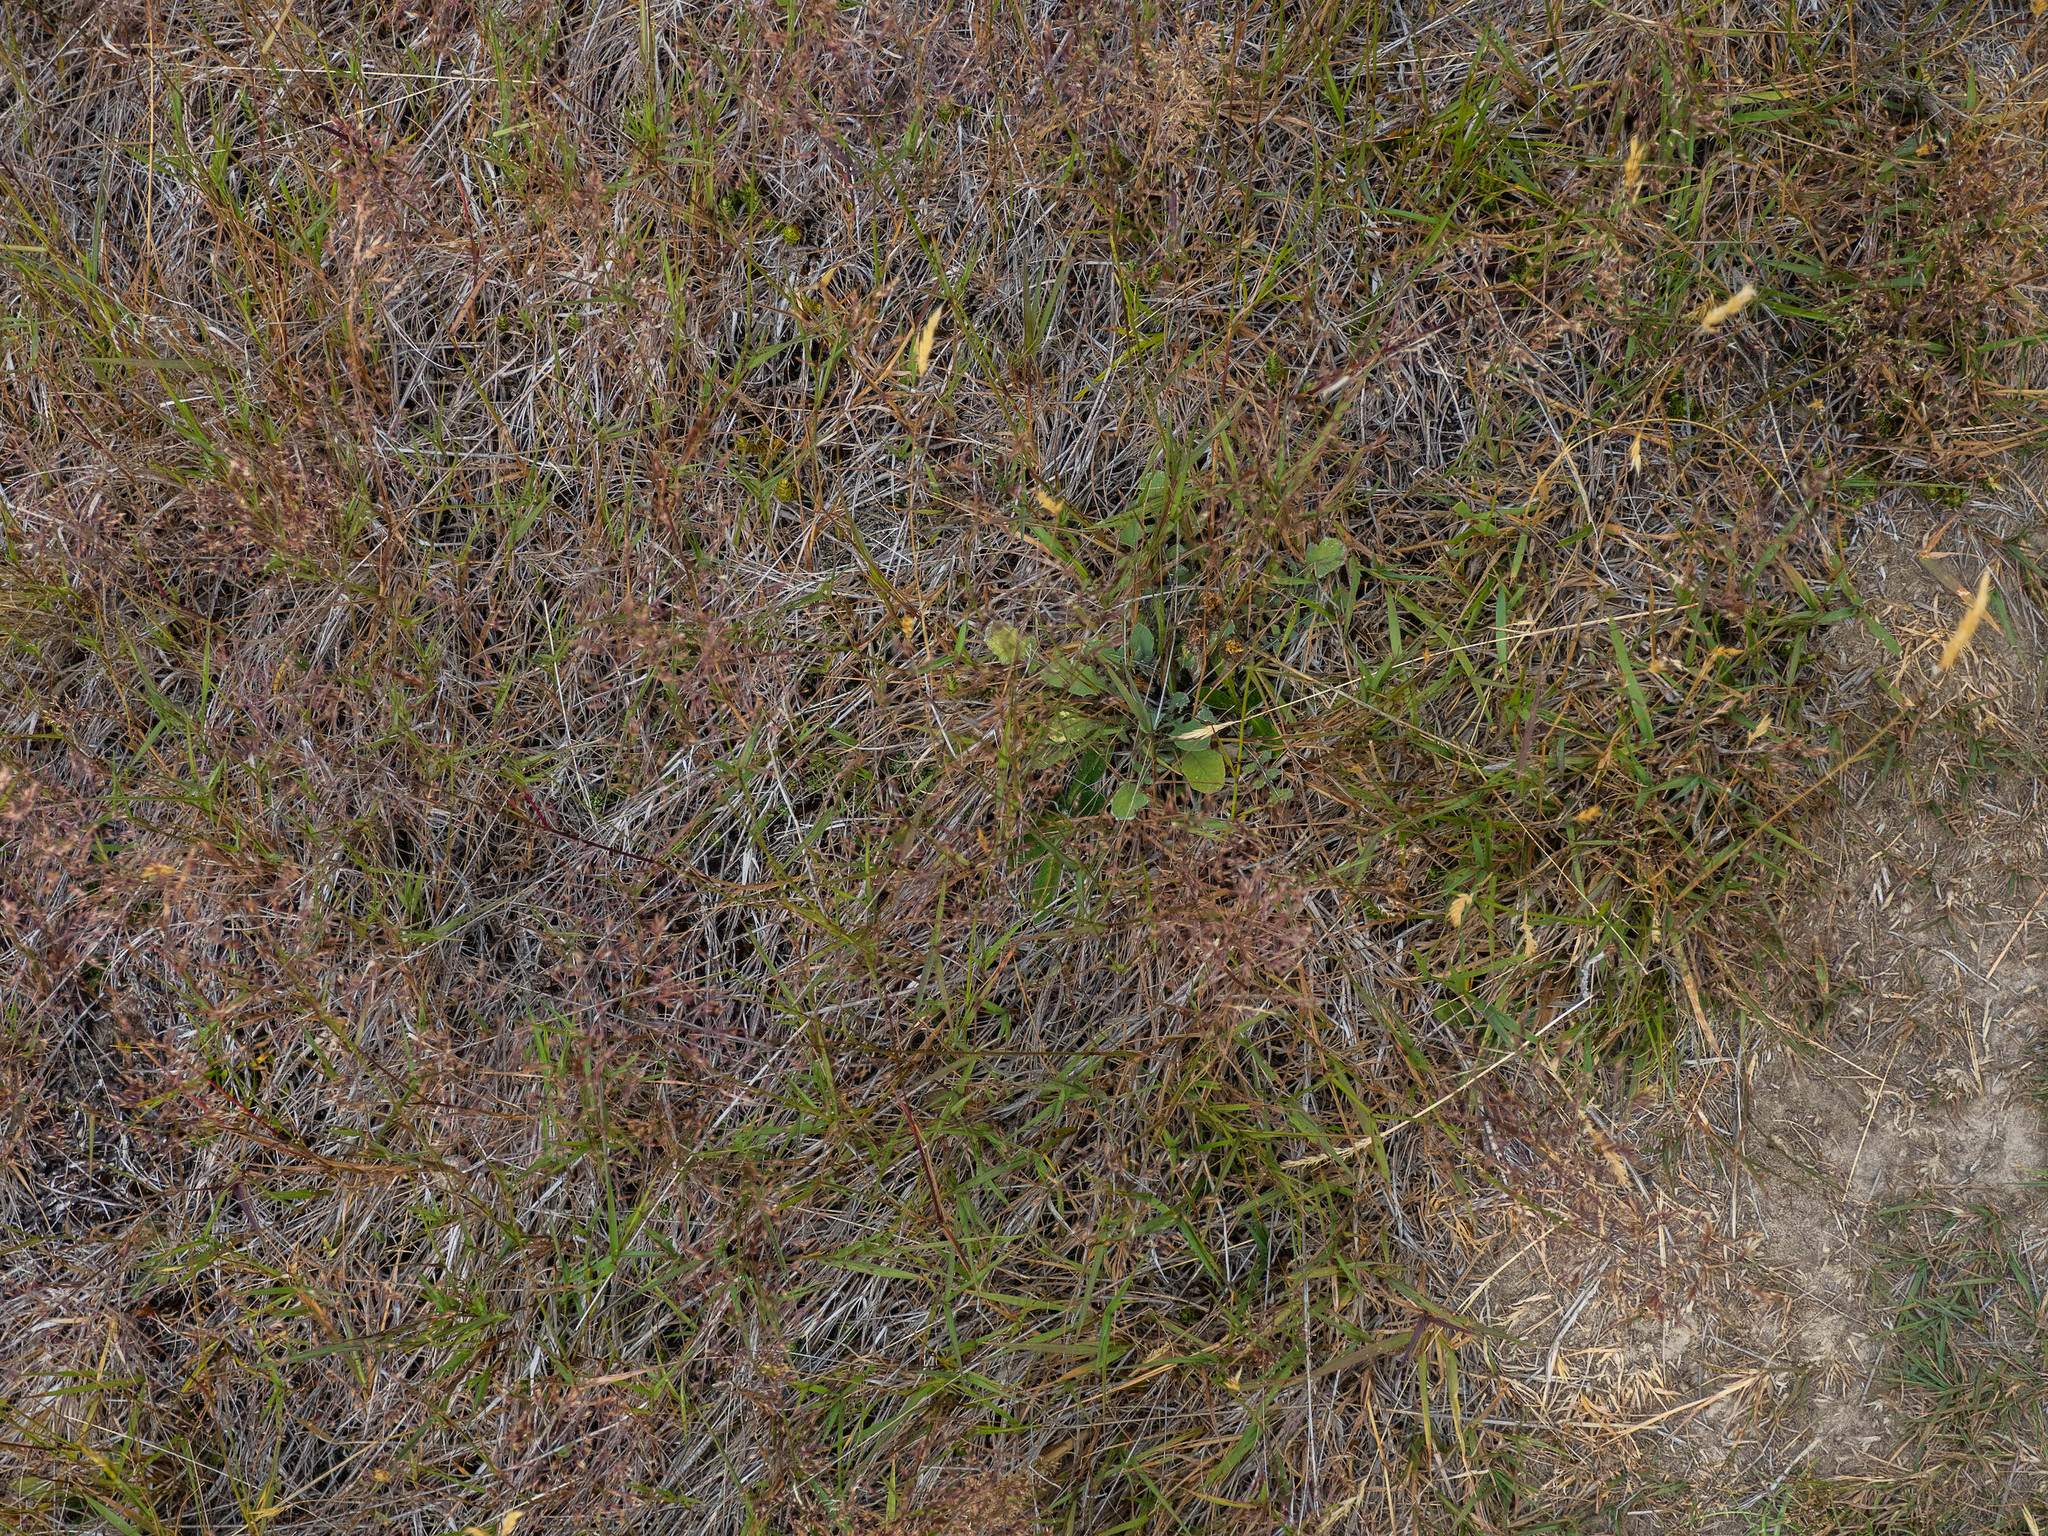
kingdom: Plantae
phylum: Tracheophyta
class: Magnoliopsida
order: Asterales
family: Asteraceae
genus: Sonchus
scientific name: Sonchus novae-zelandiae
